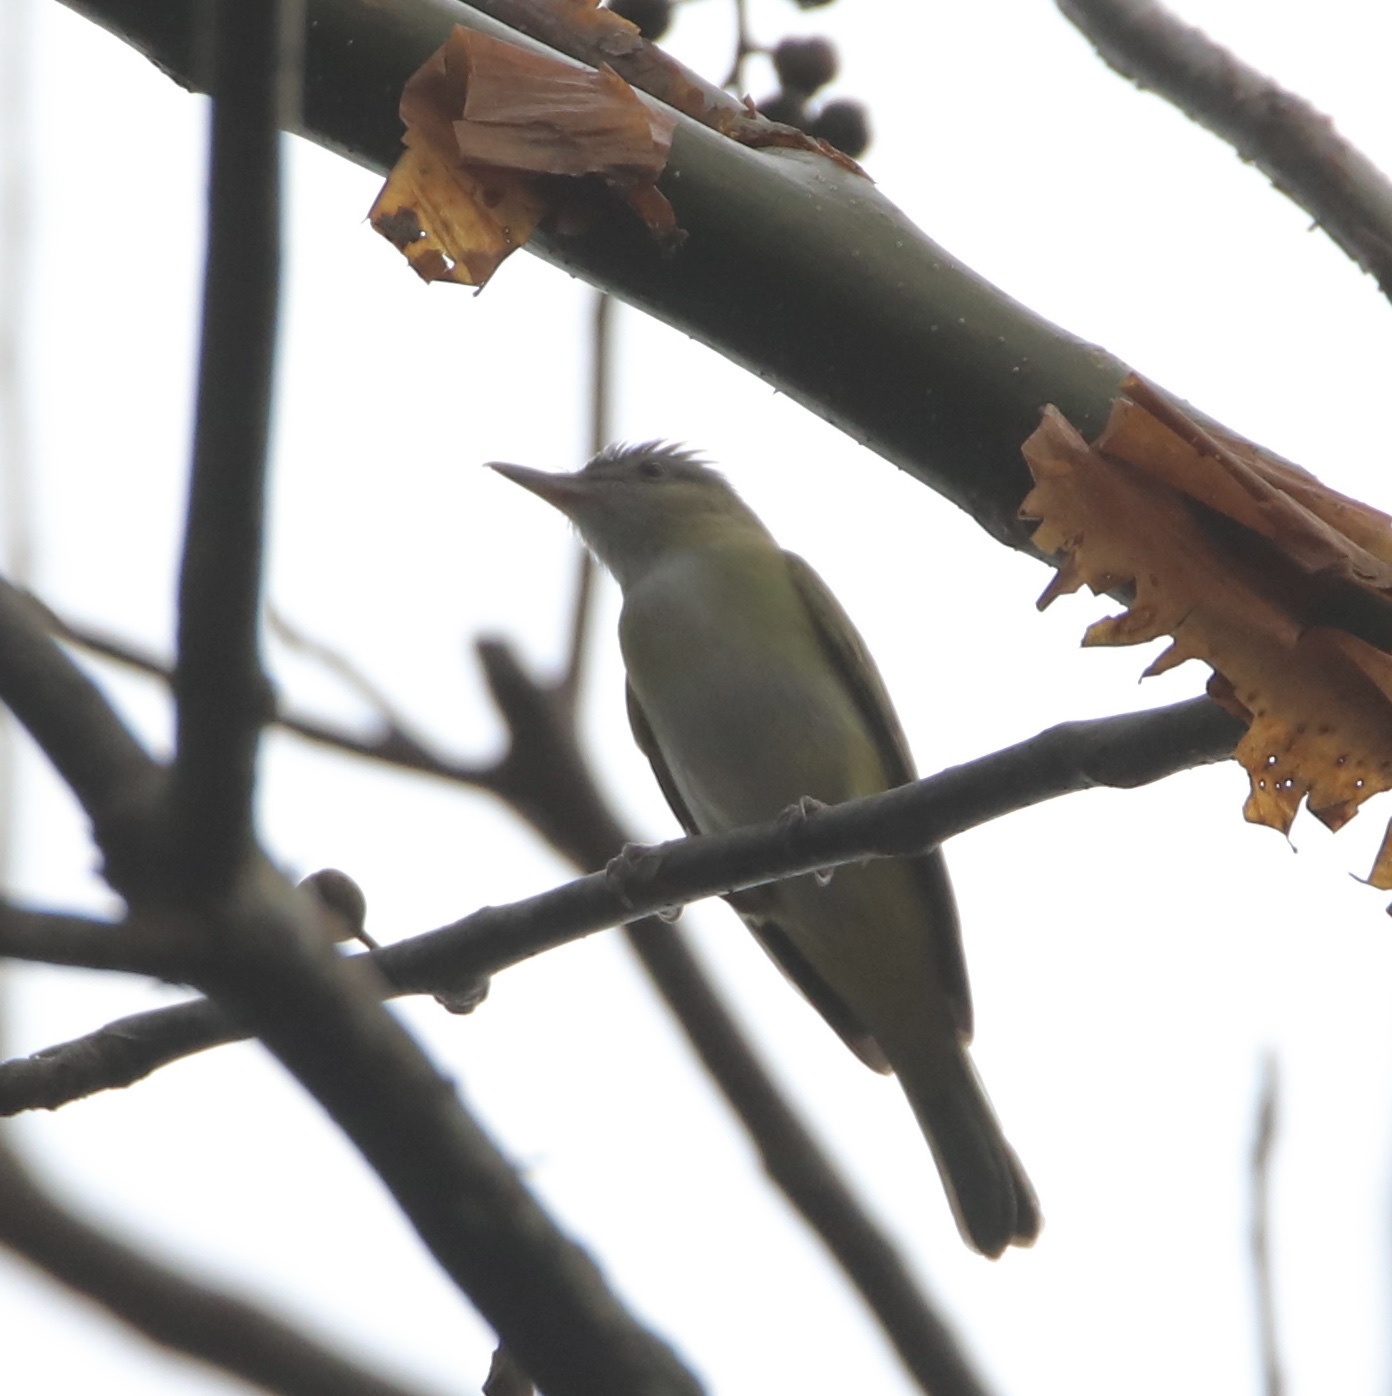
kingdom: Animalia
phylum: Chordata
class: Aves
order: Passeriformes
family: Vireonidae
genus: Vireo
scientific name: Vireo flavoviridis
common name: Yellow-green vireo
